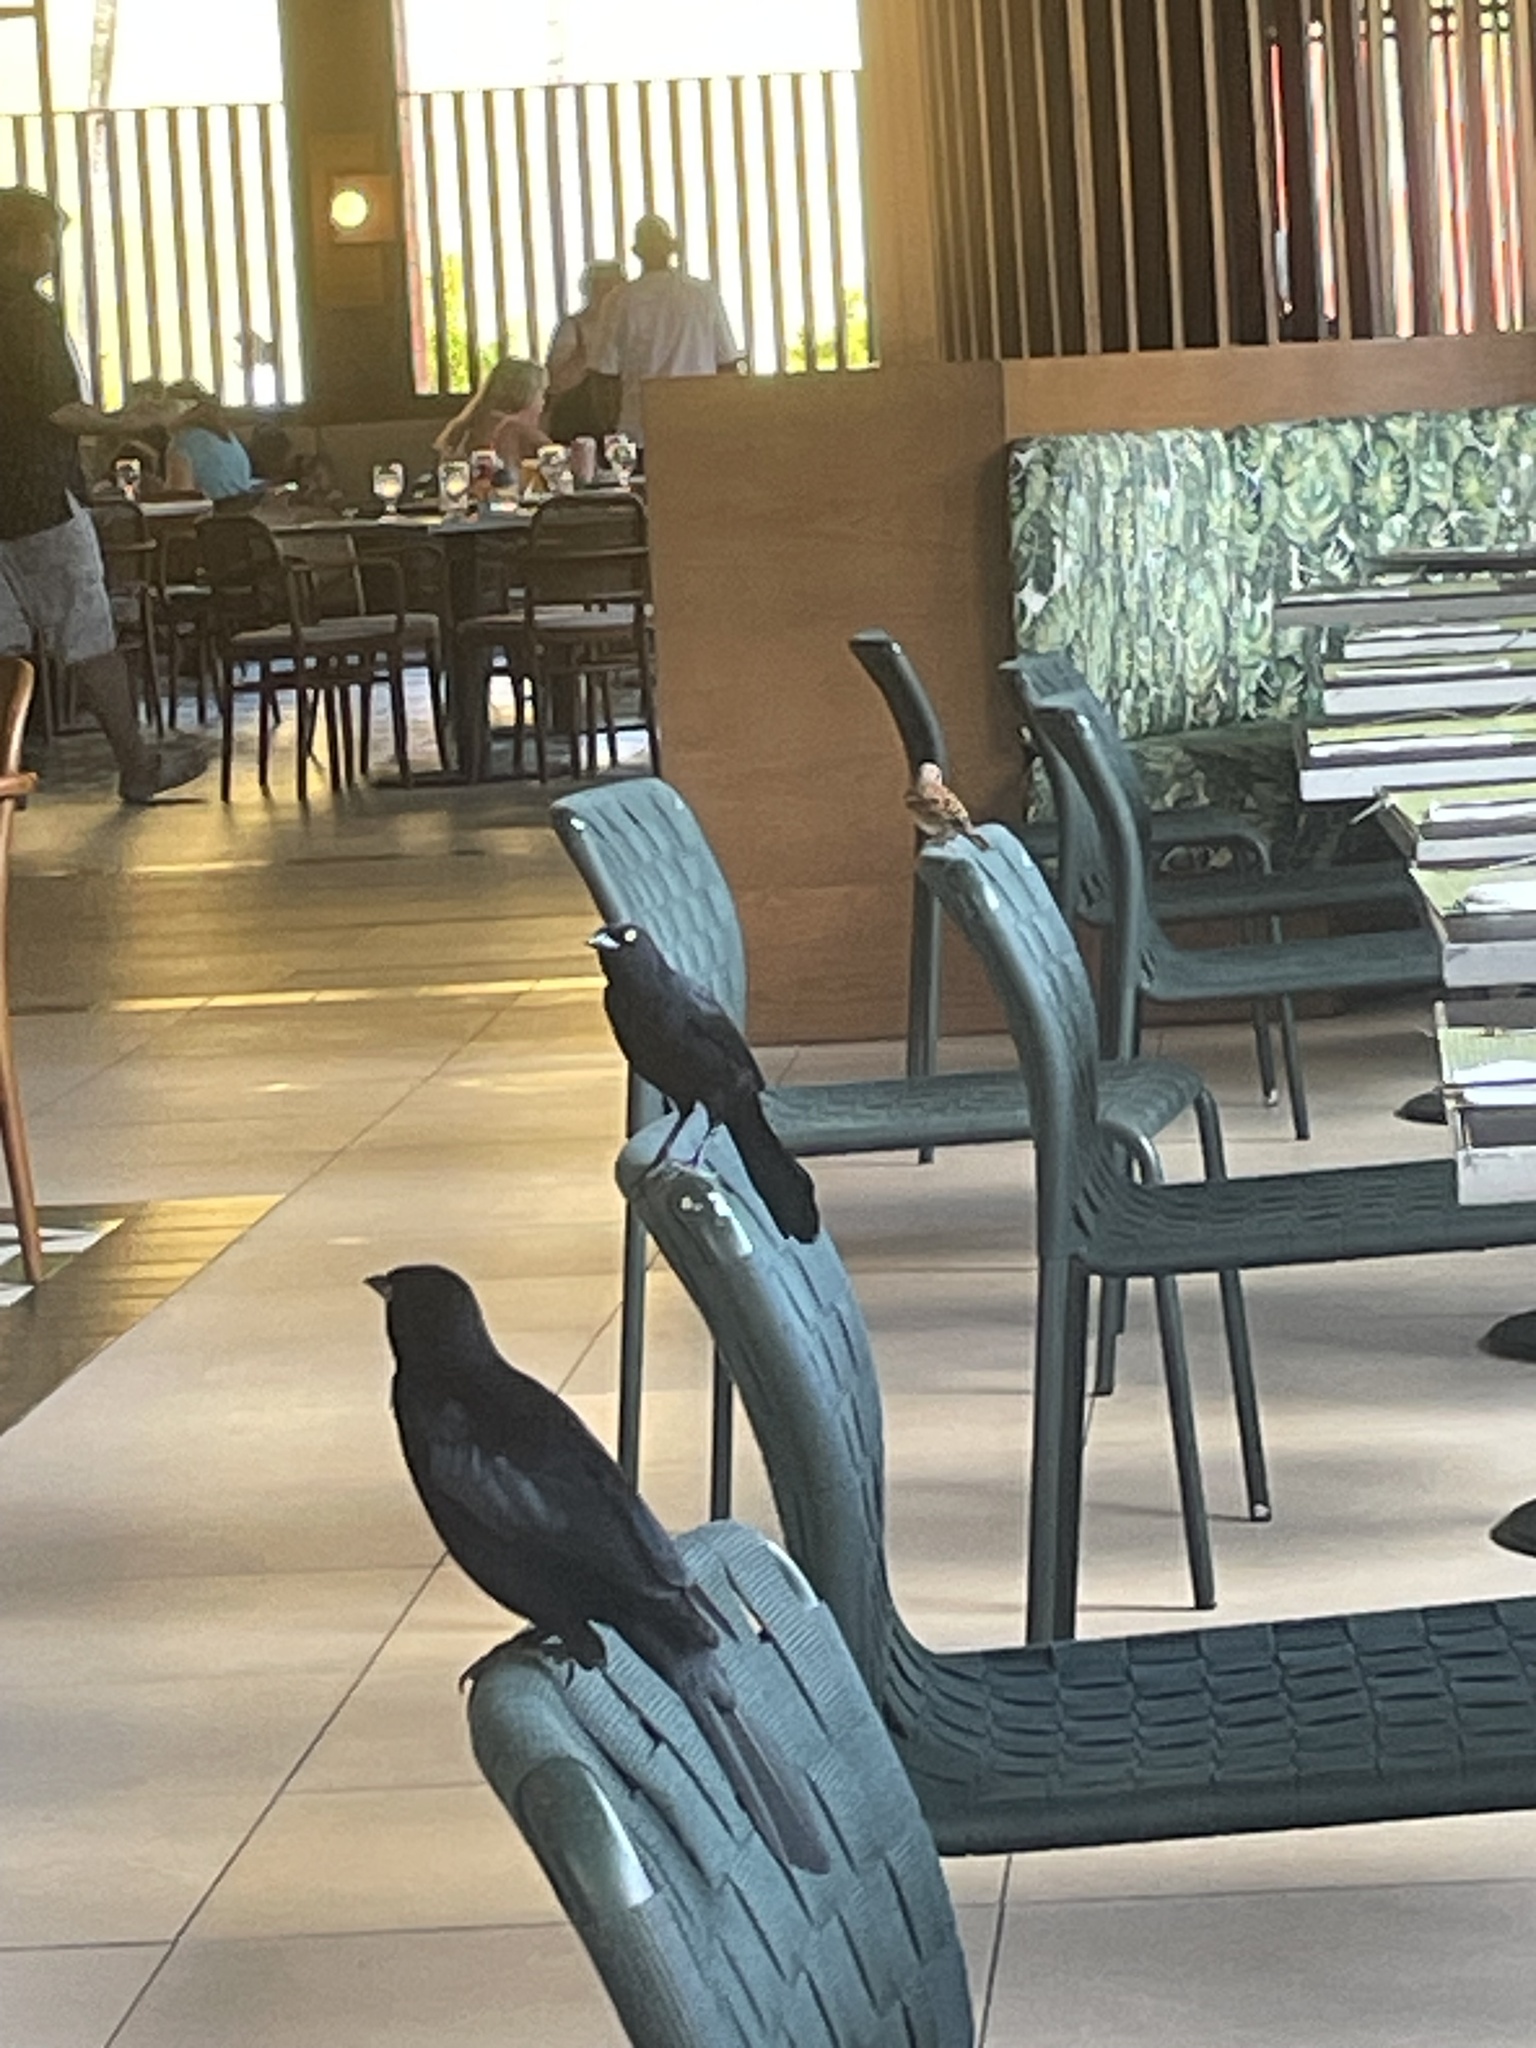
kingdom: Animalia
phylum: Chordata
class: Aves
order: Passeriformes
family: Icteridae
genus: Quiscalus
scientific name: Quiscalus niger
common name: Greater antillean grackle
